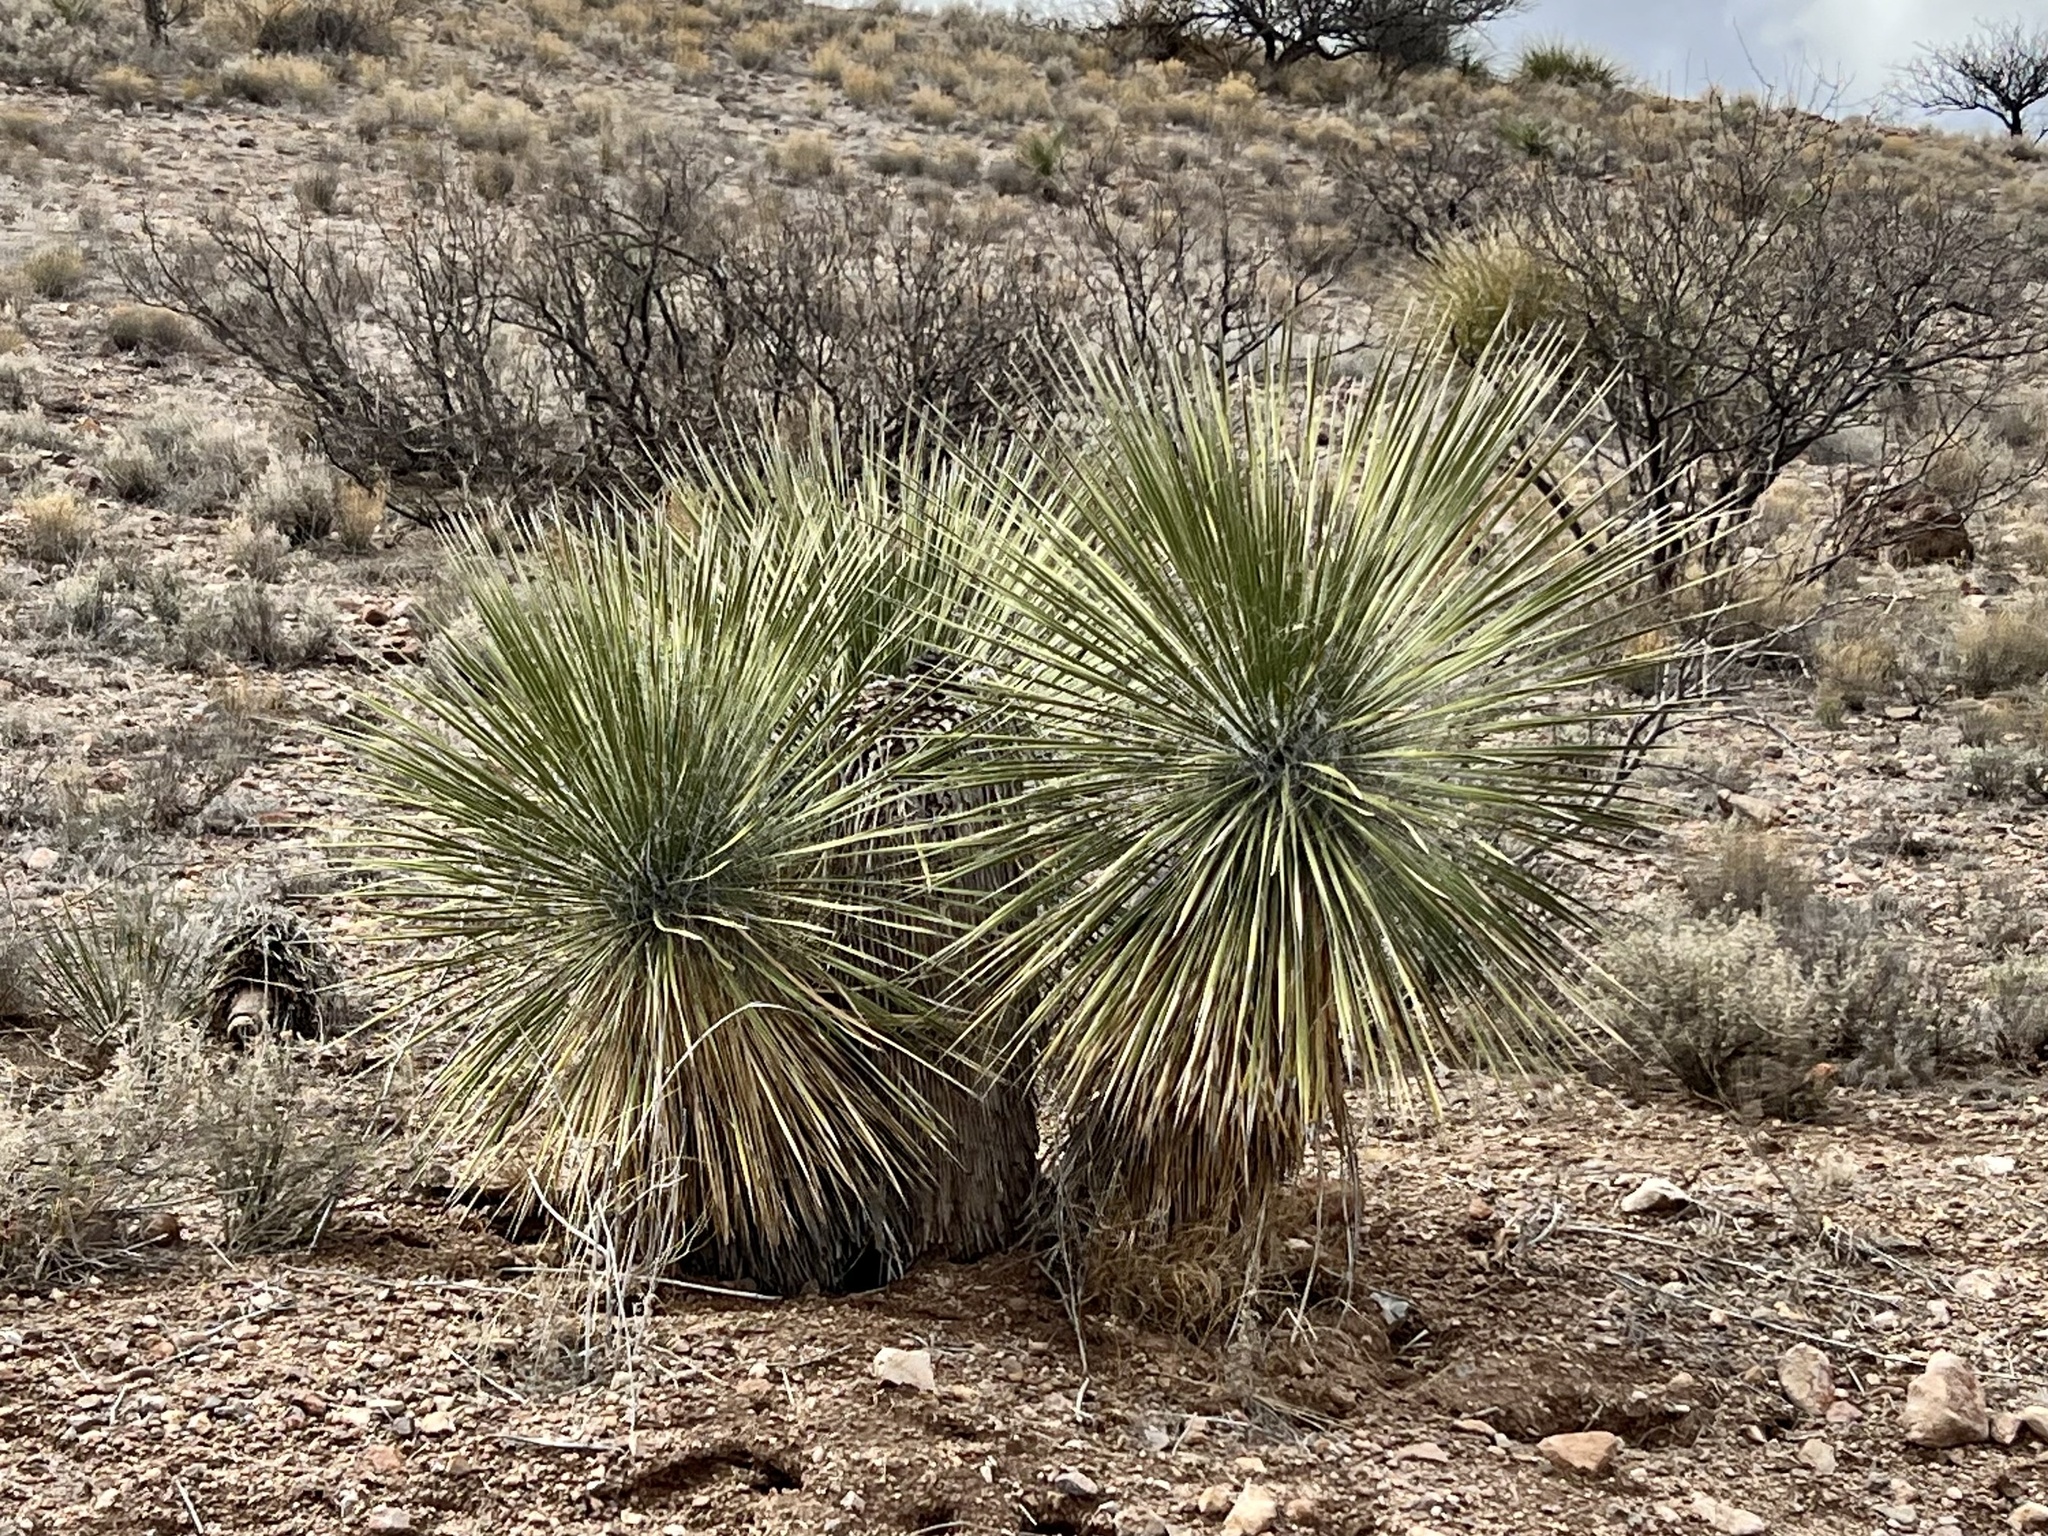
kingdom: Plantae
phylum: Tracheophyta
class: Liliopsida
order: Asparagales
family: Asparagaceae
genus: Yucca
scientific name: Yucca elata
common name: Palmella
